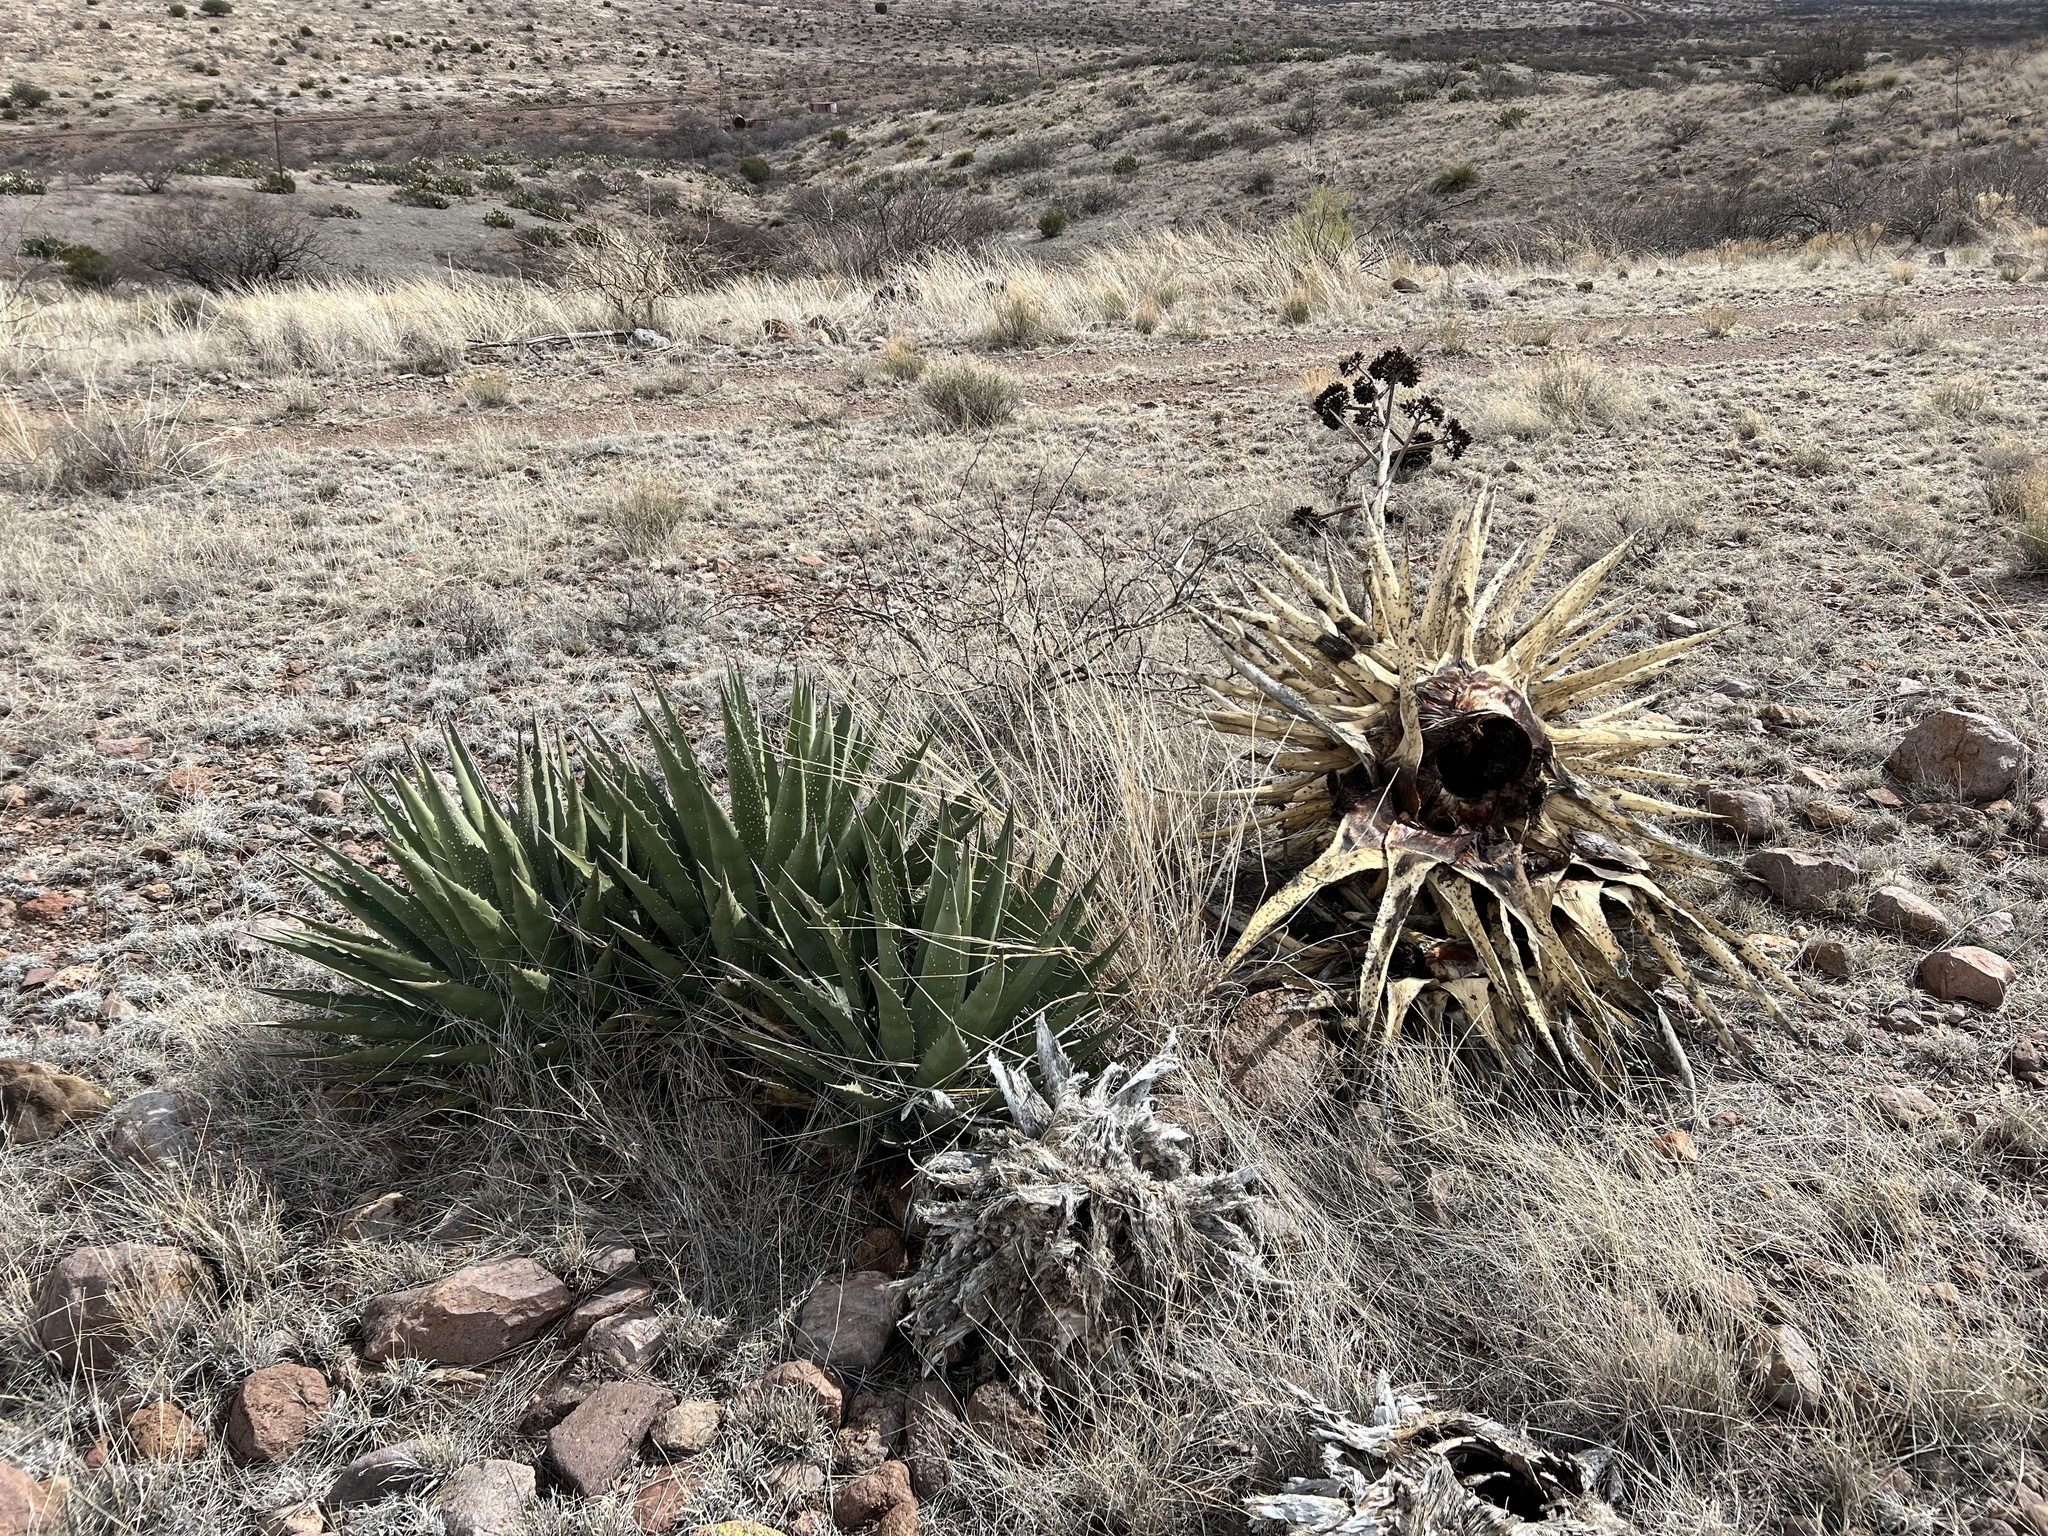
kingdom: Plantae
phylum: Tracheophyta
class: Liliopsida
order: Asparagales
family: Asparagaceae
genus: Agave
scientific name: Agave palmeri
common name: Palmer agave
